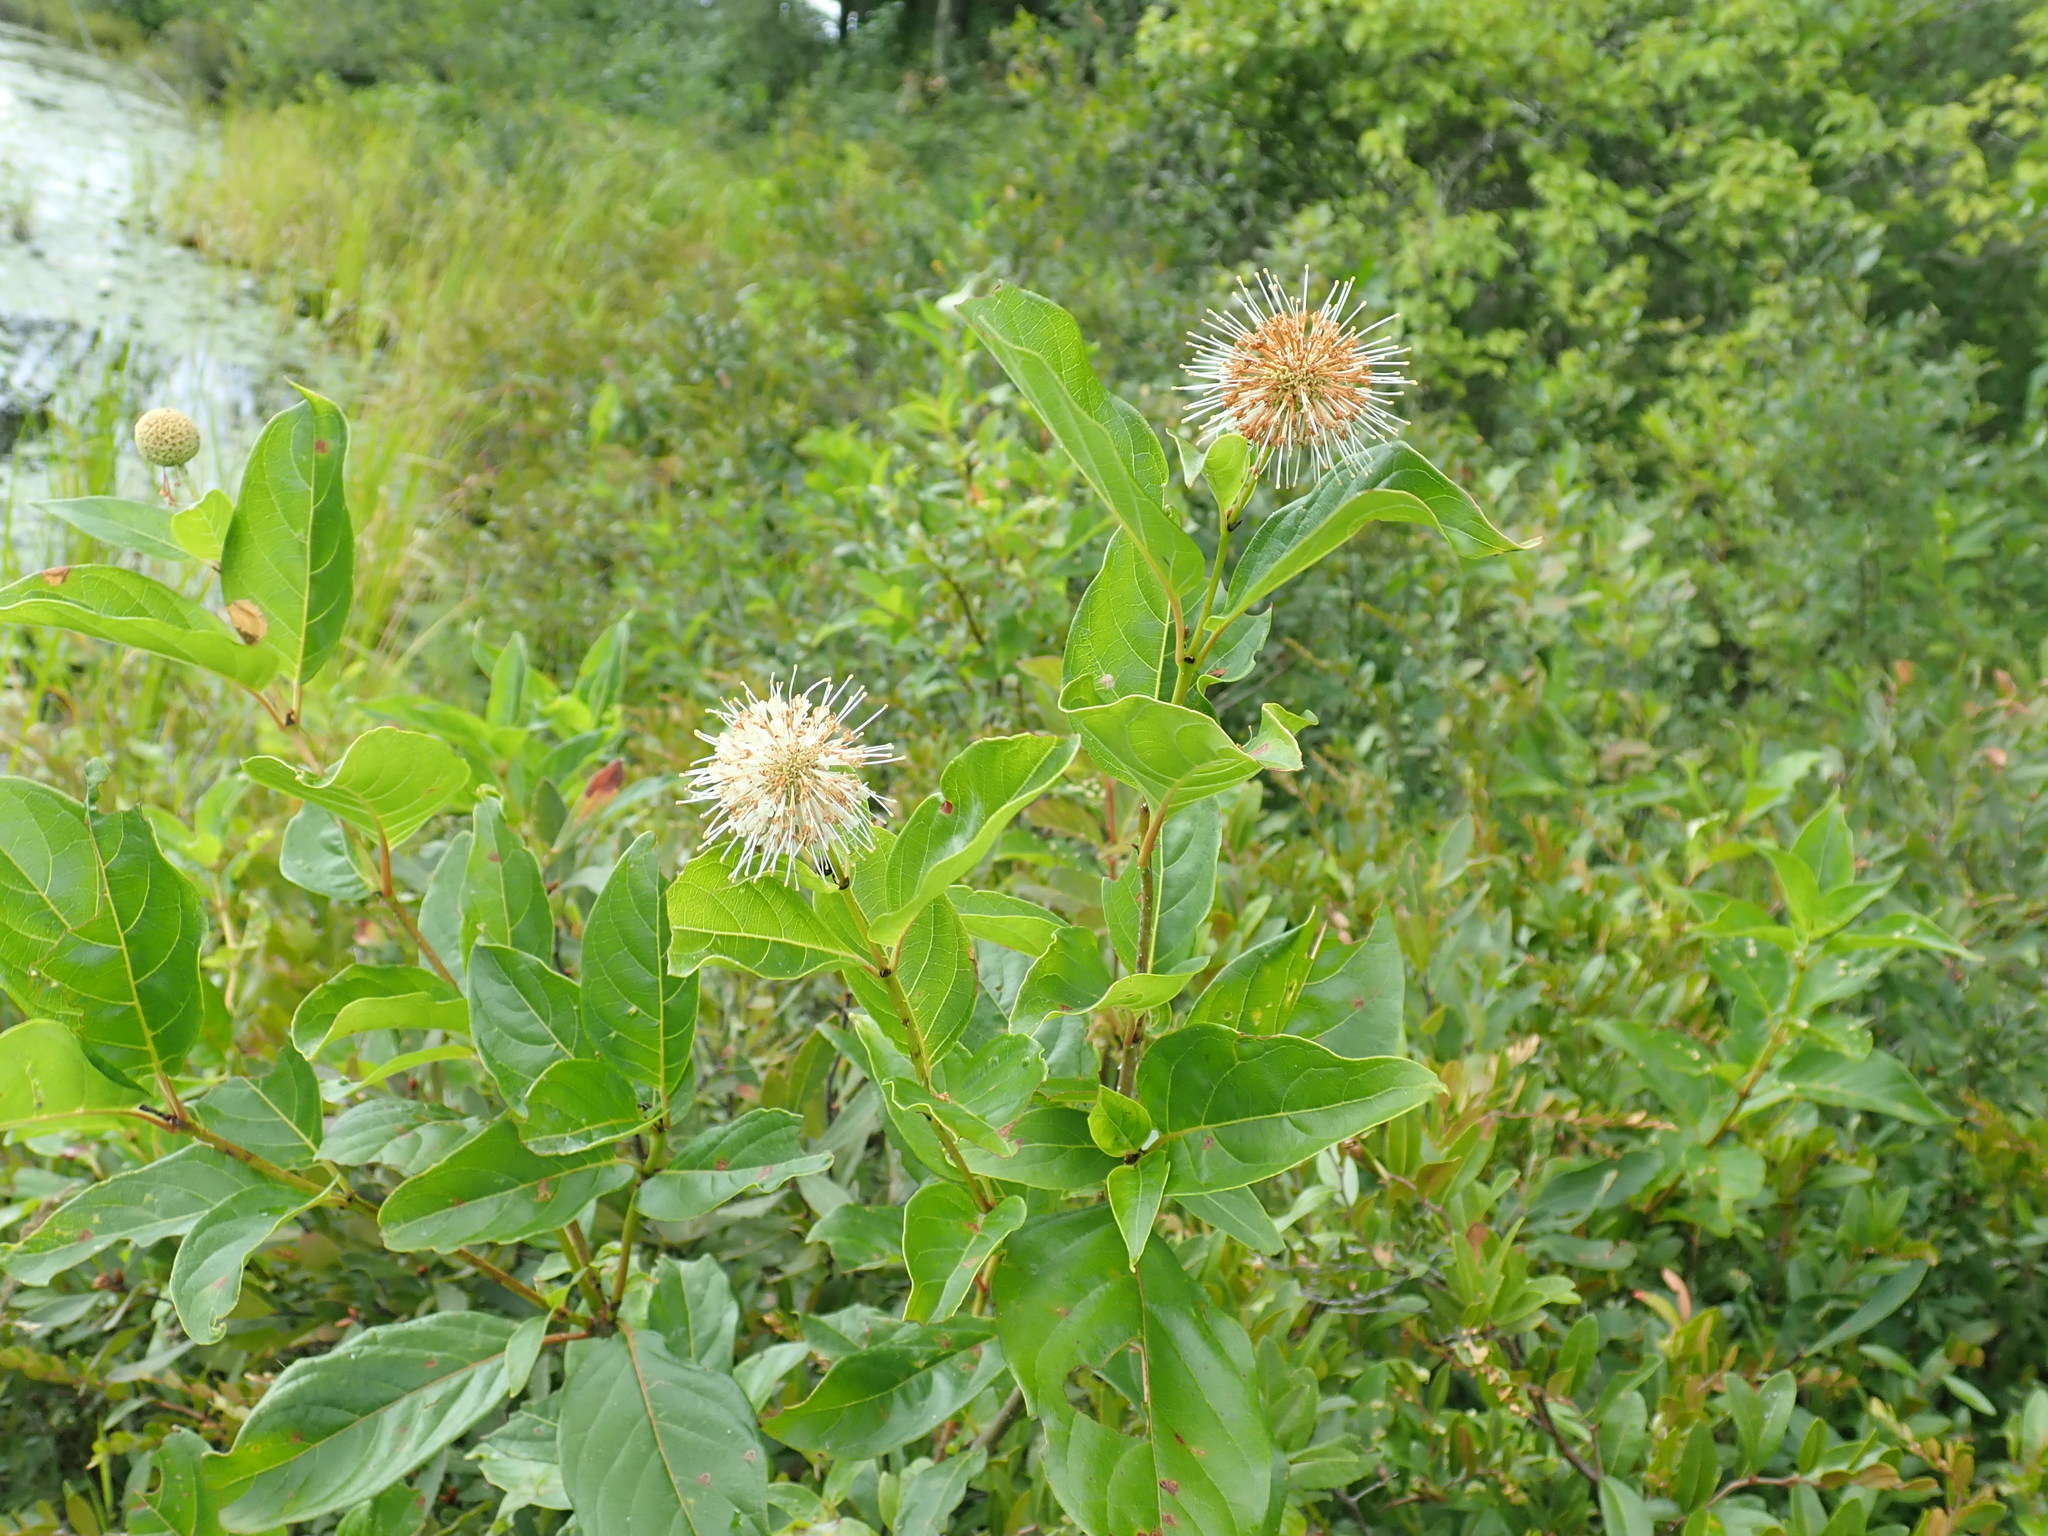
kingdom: Plantae
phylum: Tracheophyta
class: Magnoliopsida
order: Gentianales
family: Rubiaceae
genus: Cephalanthus
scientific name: Cephalanthus occidentalis
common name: Button-willow
